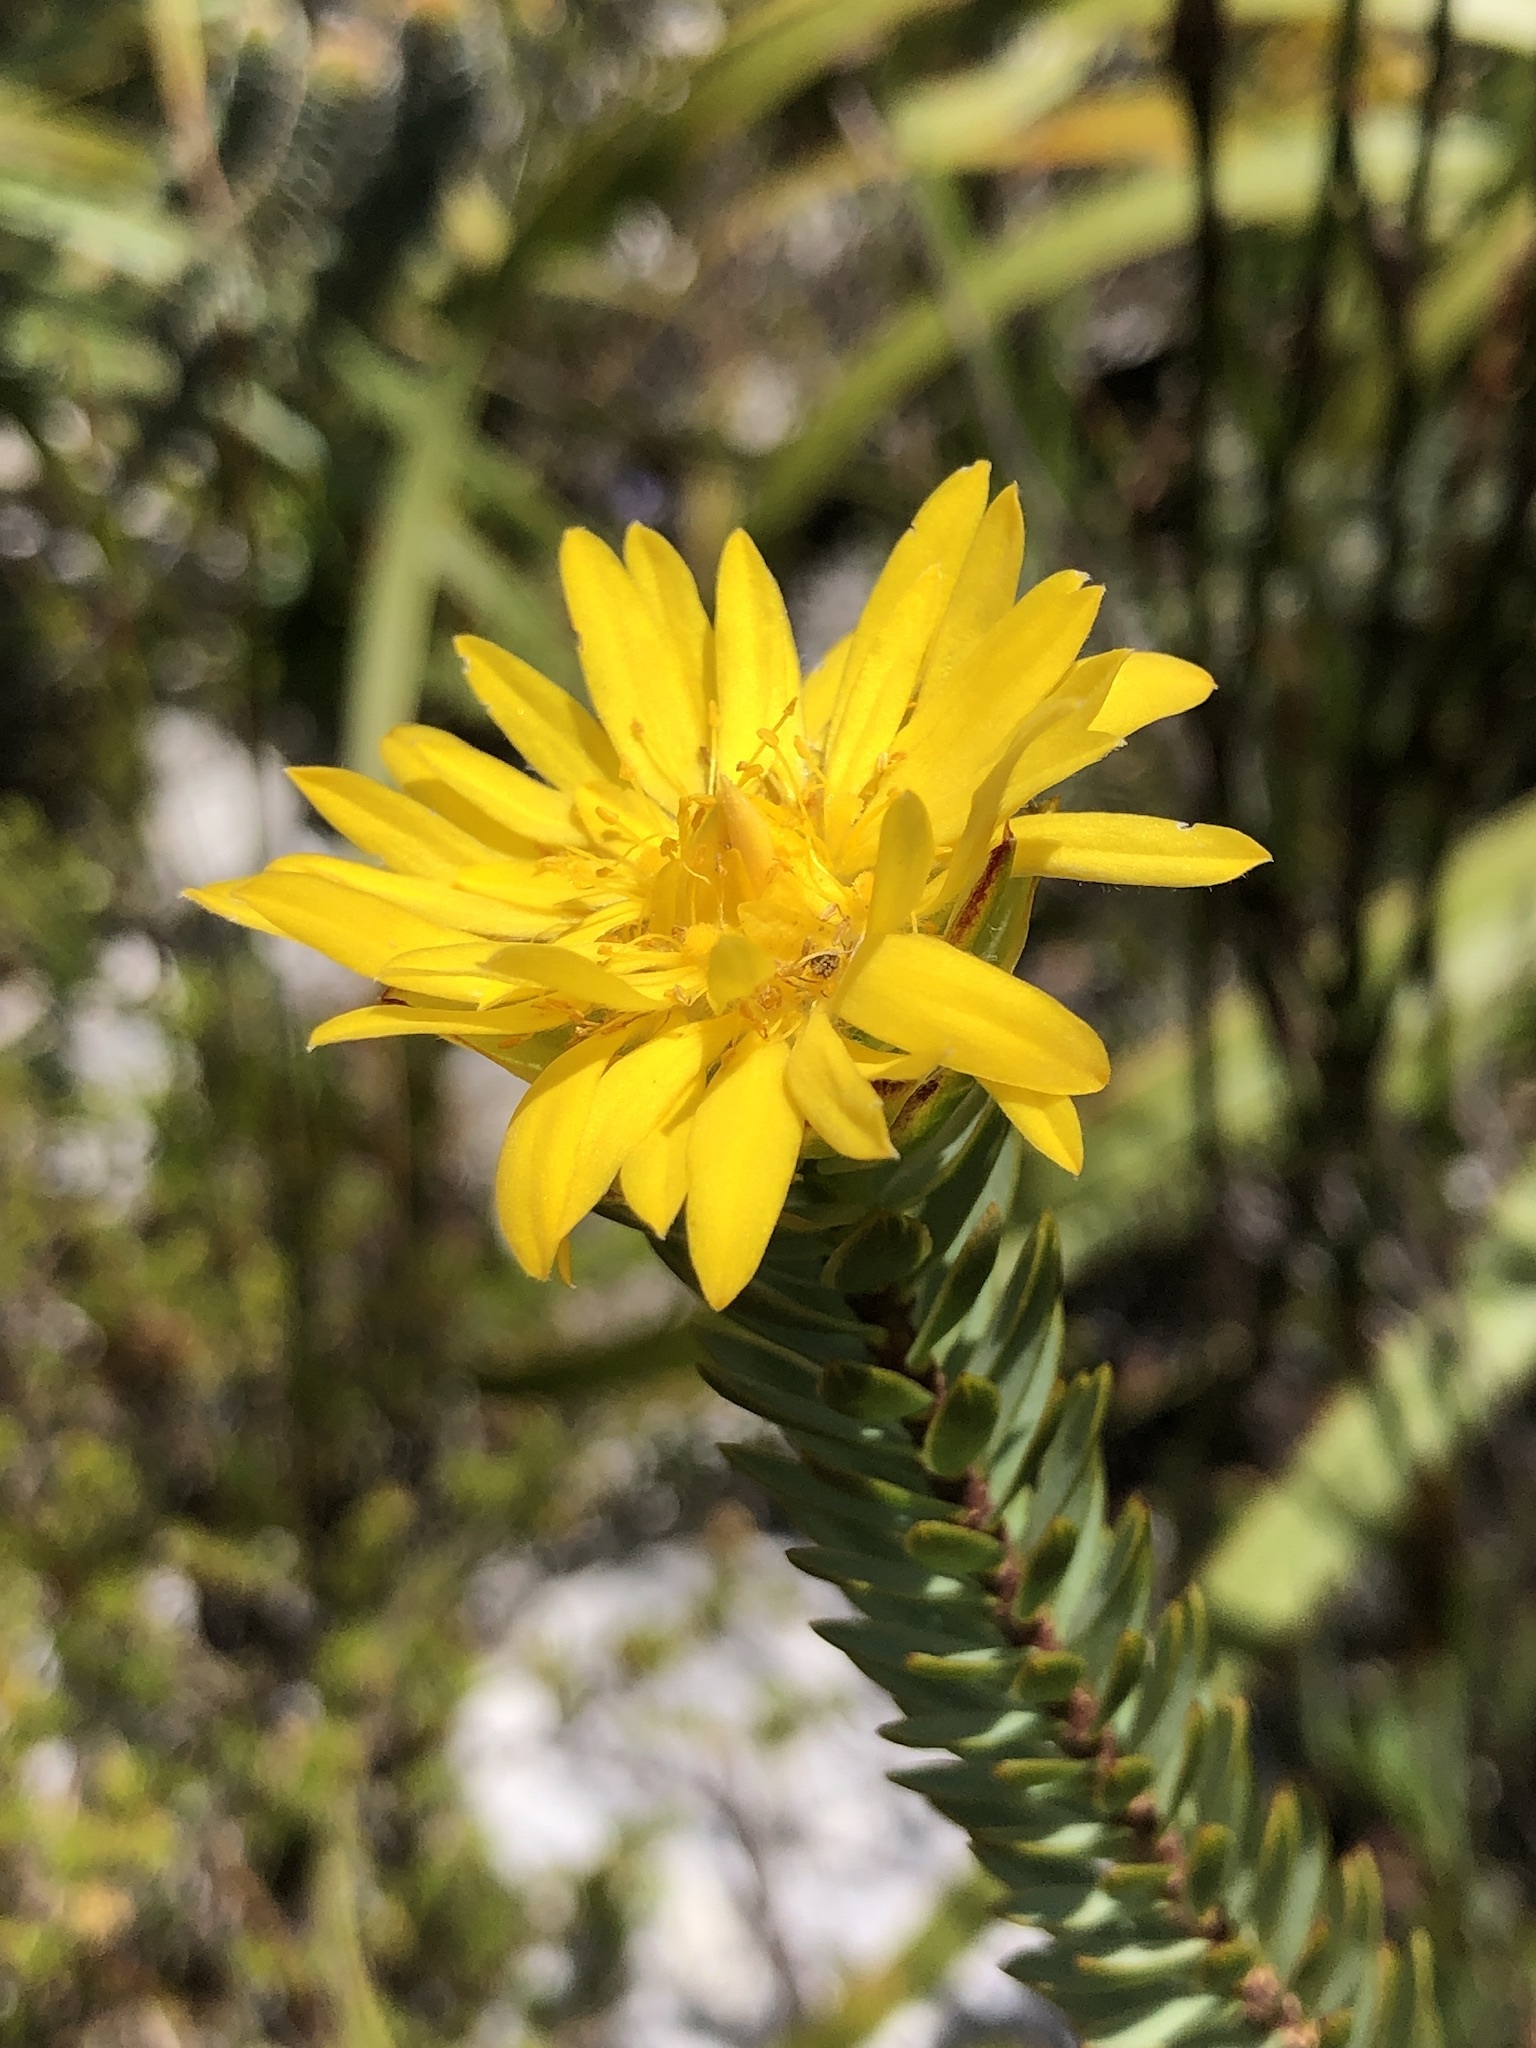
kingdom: Plantae
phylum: Tracheophyta
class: Magnoliopsida
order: Malvales
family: Thymelaeaceae
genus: Lachnaea
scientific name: Lachnaea aurea
